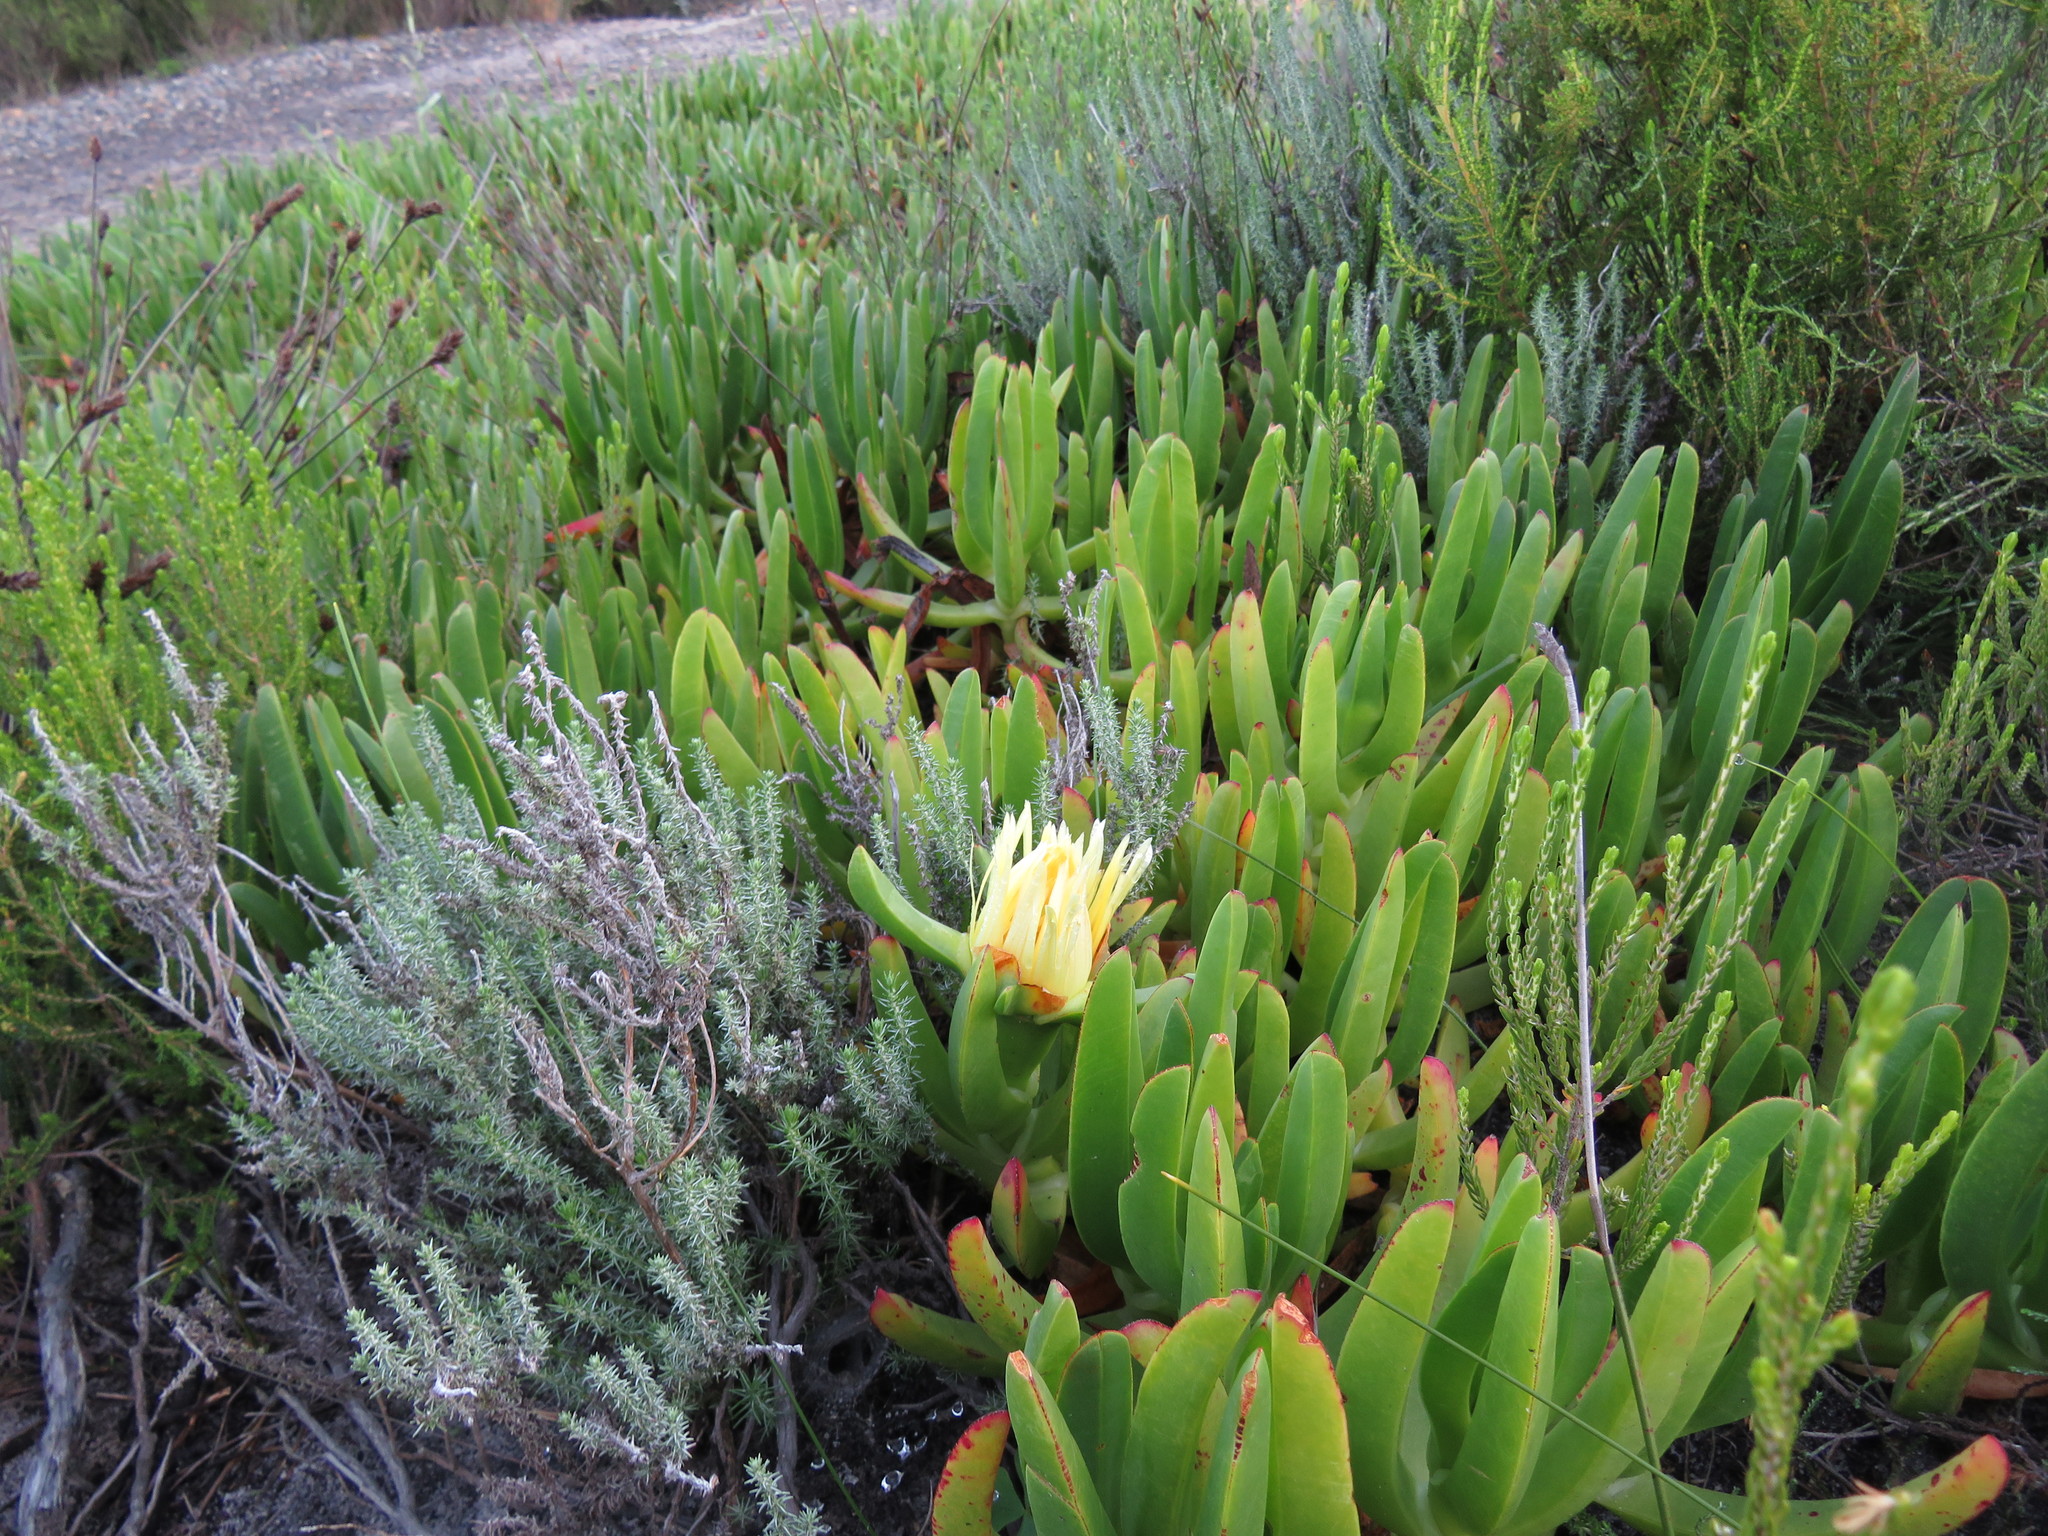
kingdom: Plantae
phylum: Tracheophyta
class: Magnoliopsida
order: Caryophyllales
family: Aizoaceae
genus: Carpobrotus
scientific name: Carpobrotus edulis
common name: Hottentot-fig
